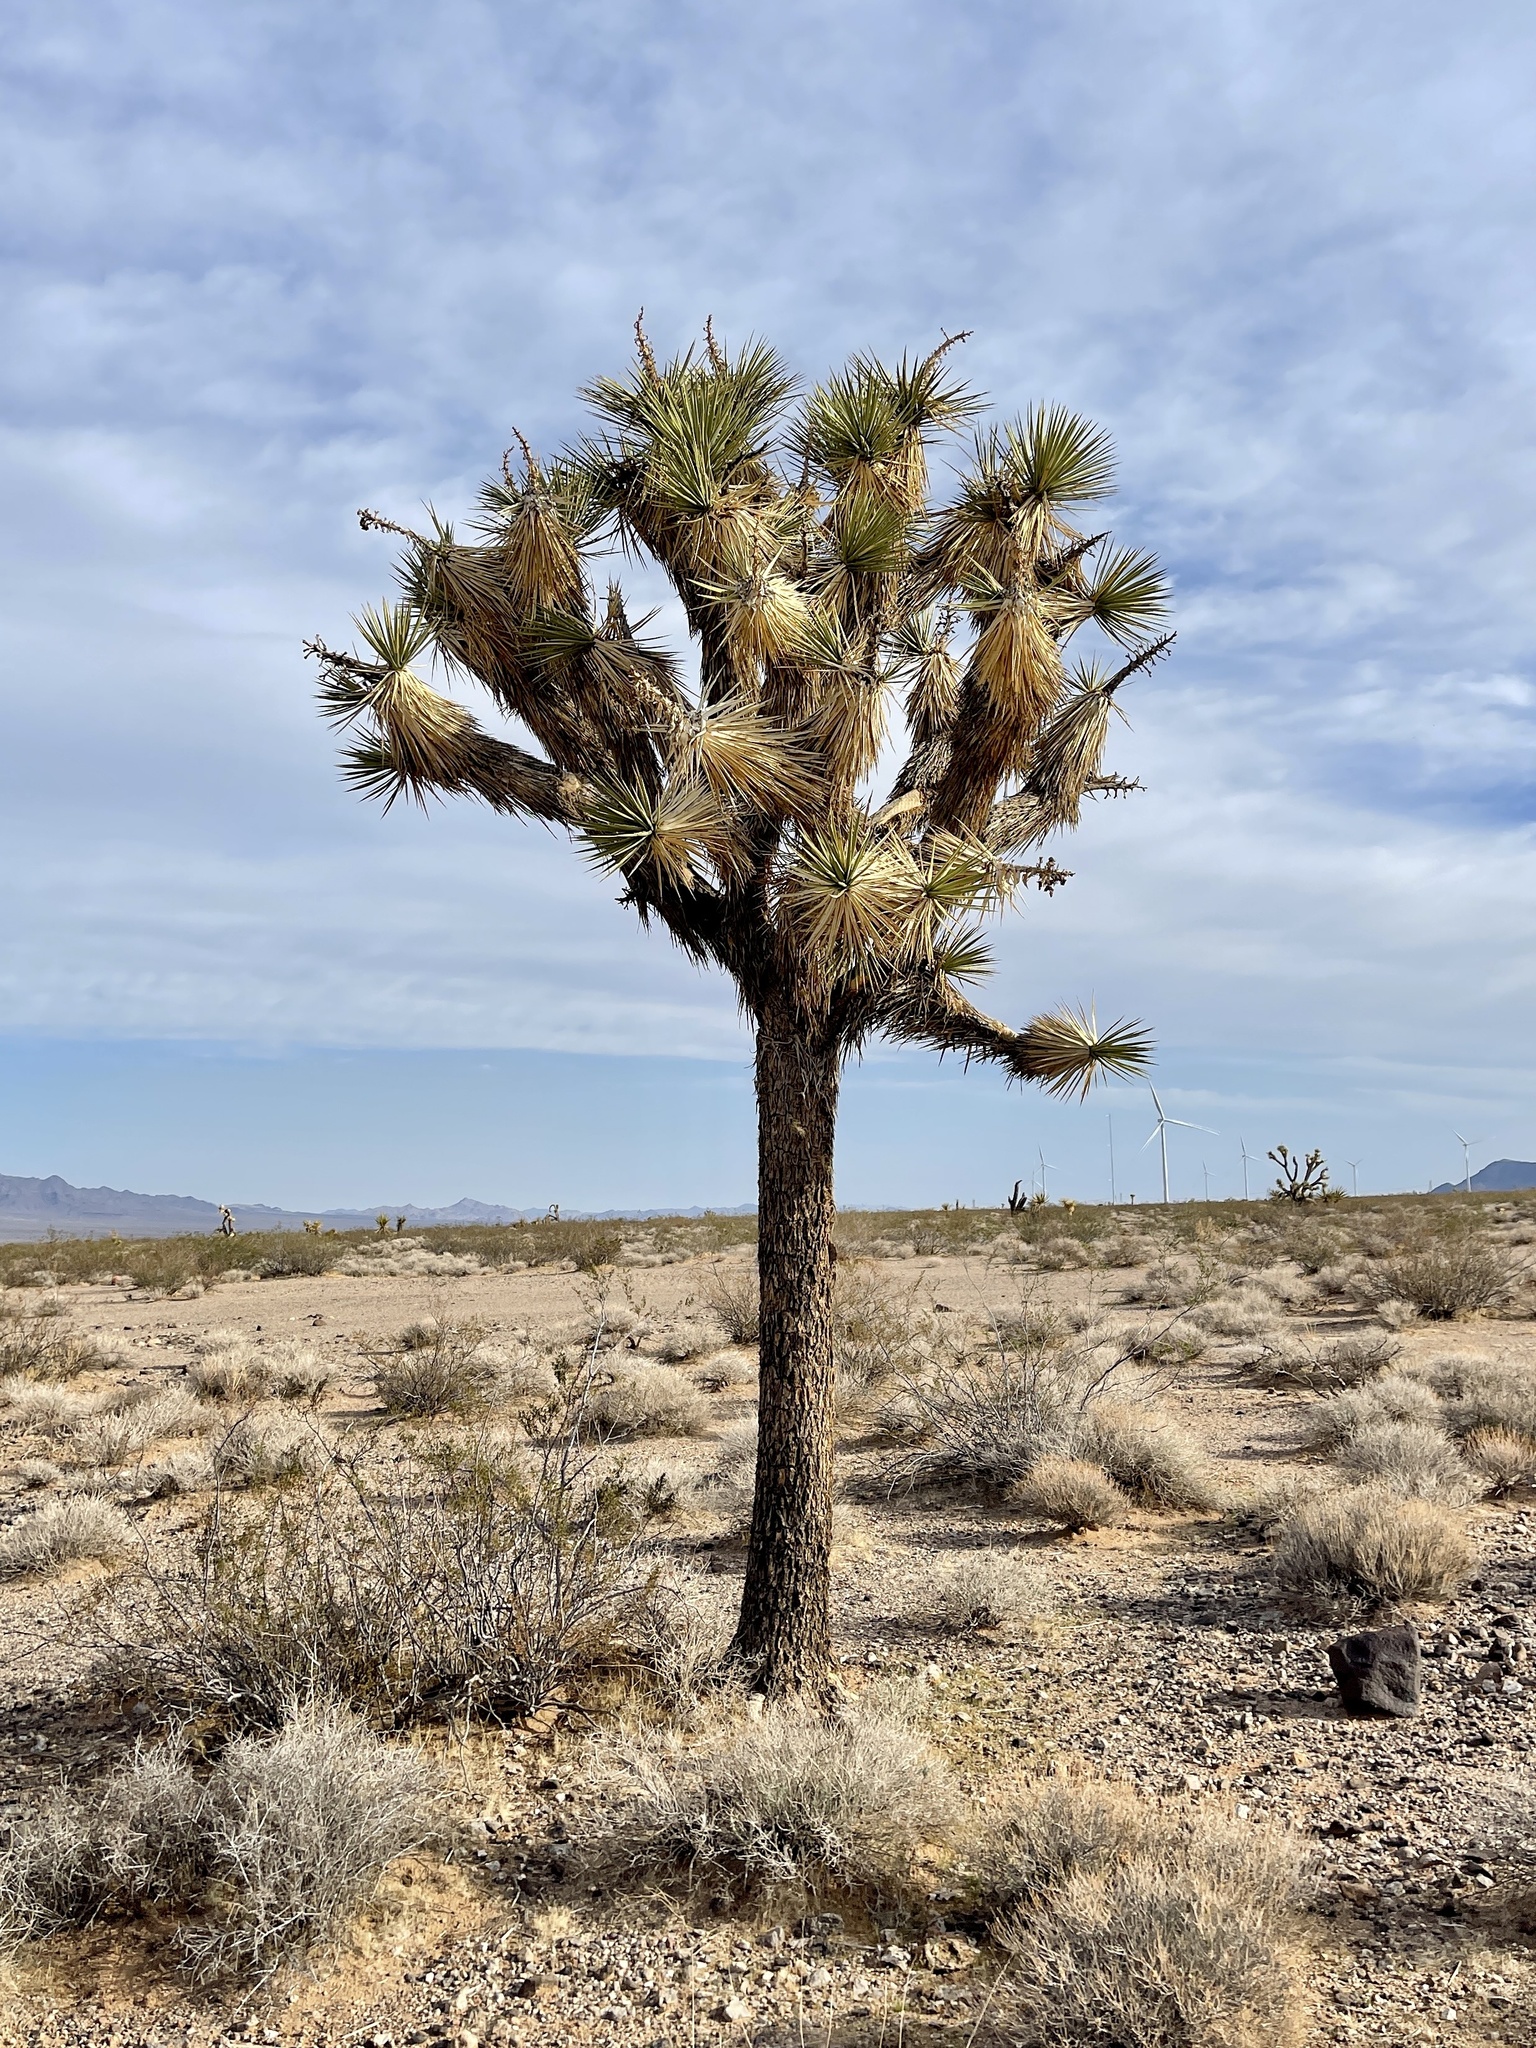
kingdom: Plantae
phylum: Tracheophyta
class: Liliopsida
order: Asparagales
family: Asparagaceae
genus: Yucca
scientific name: Yucca brevifolia
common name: Joshua tree
